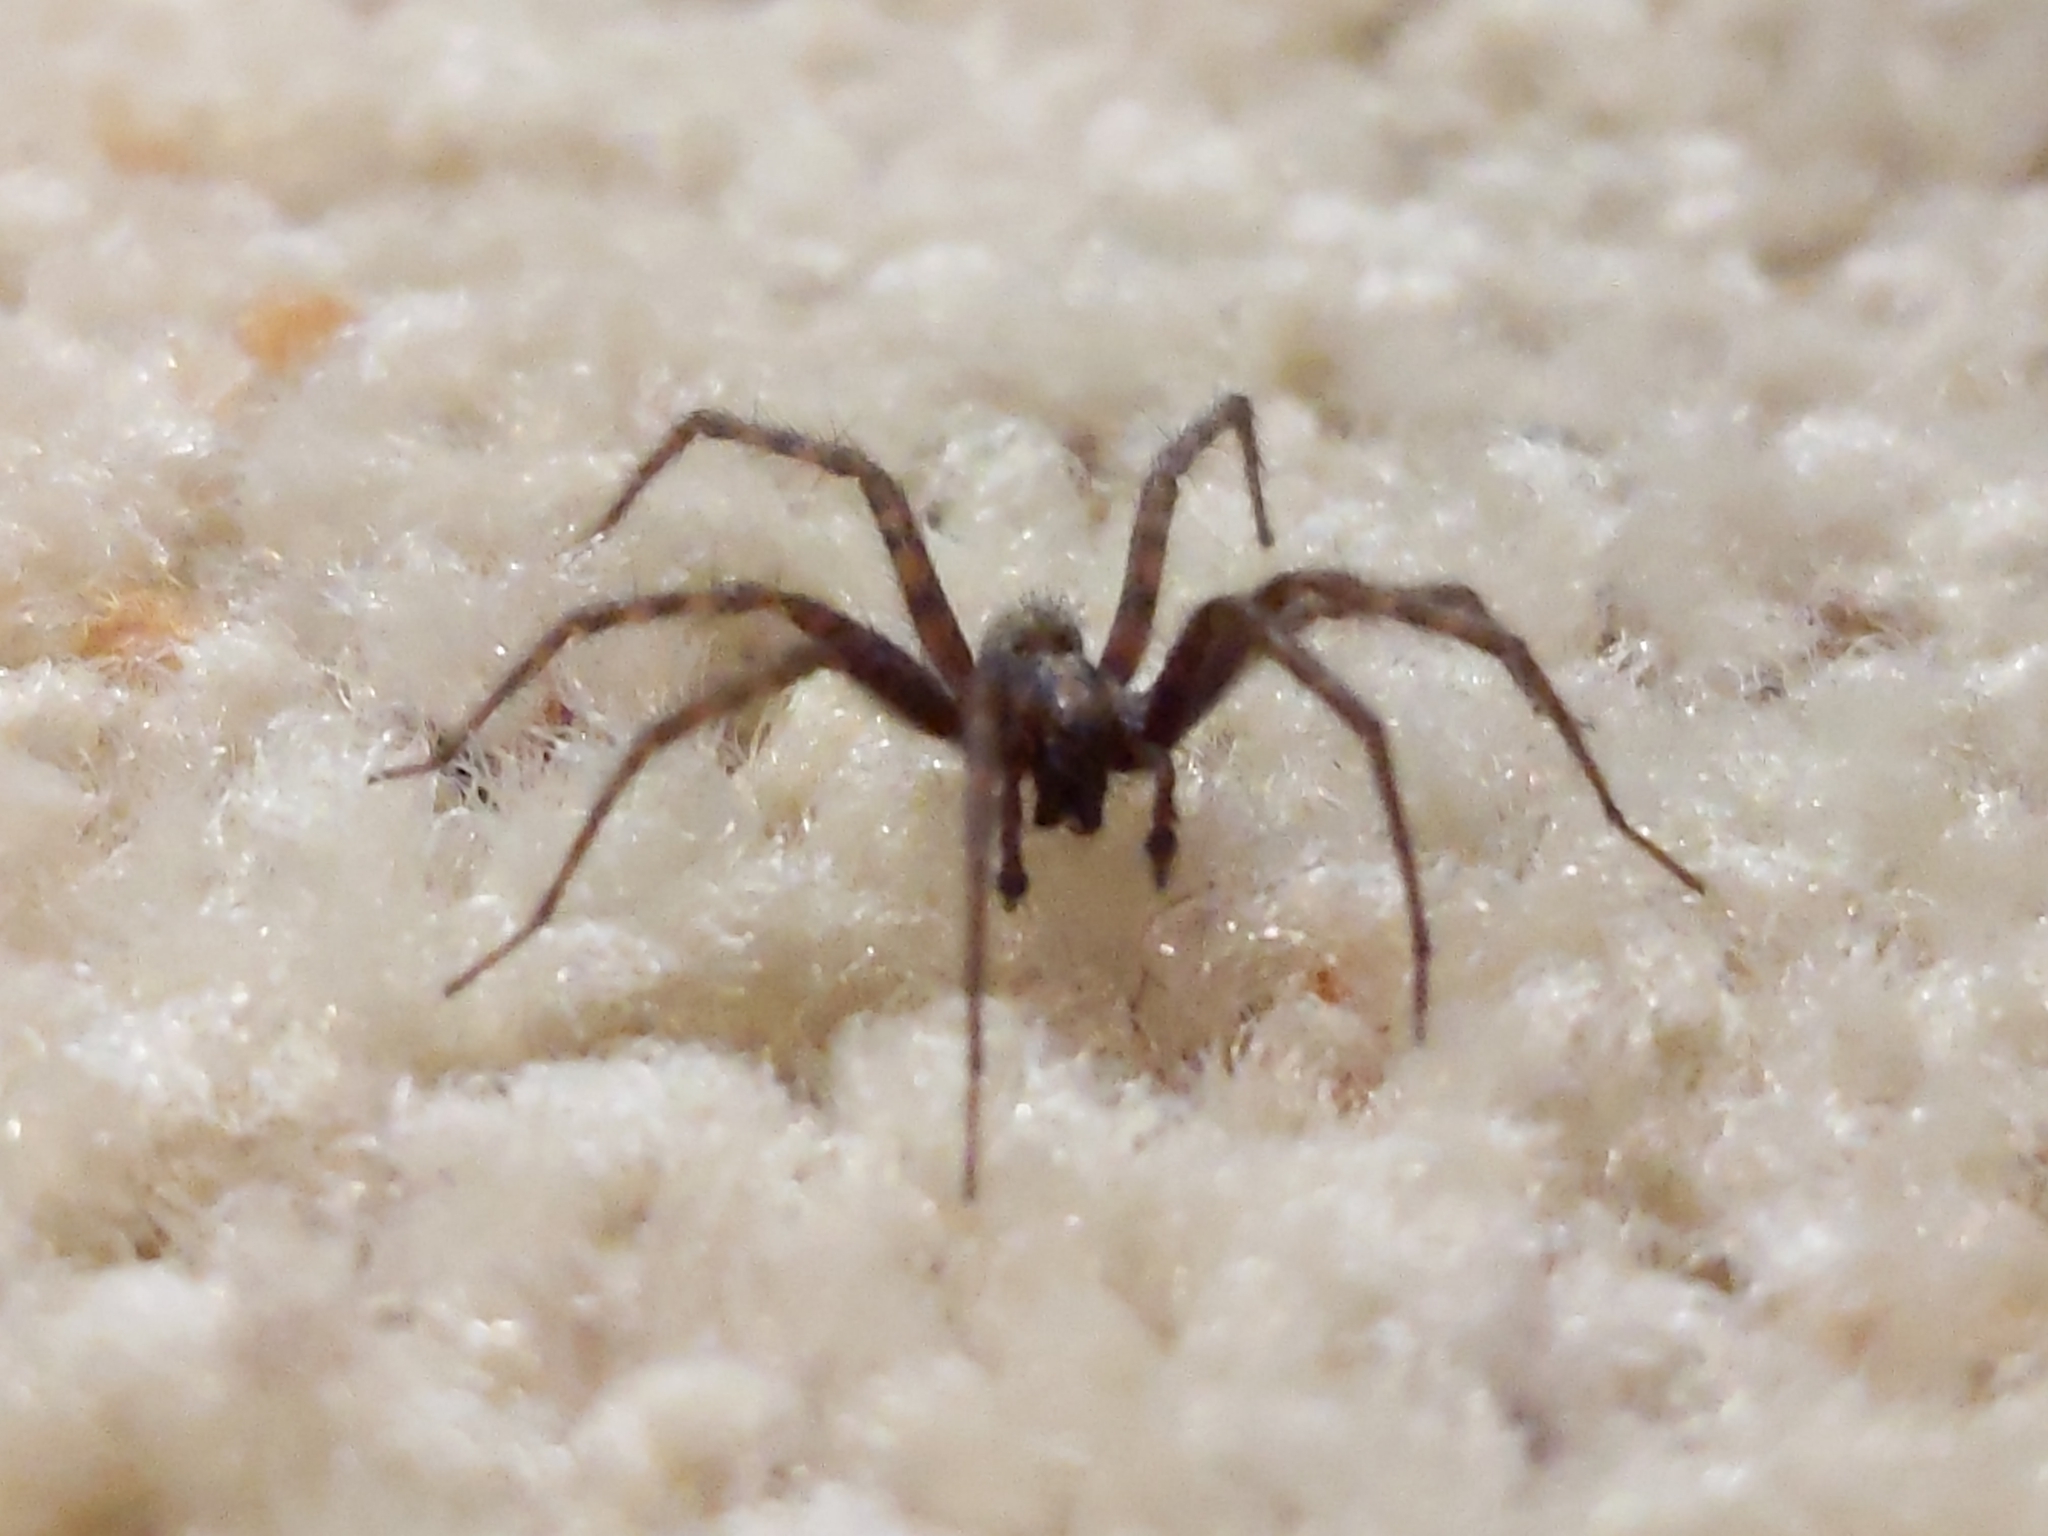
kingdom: Animalia
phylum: Arthropoda
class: Arachnida
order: Araneae
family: Agelenidae
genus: Tegenaria
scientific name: Tegenaria domestica
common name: Barn funnel weaver
